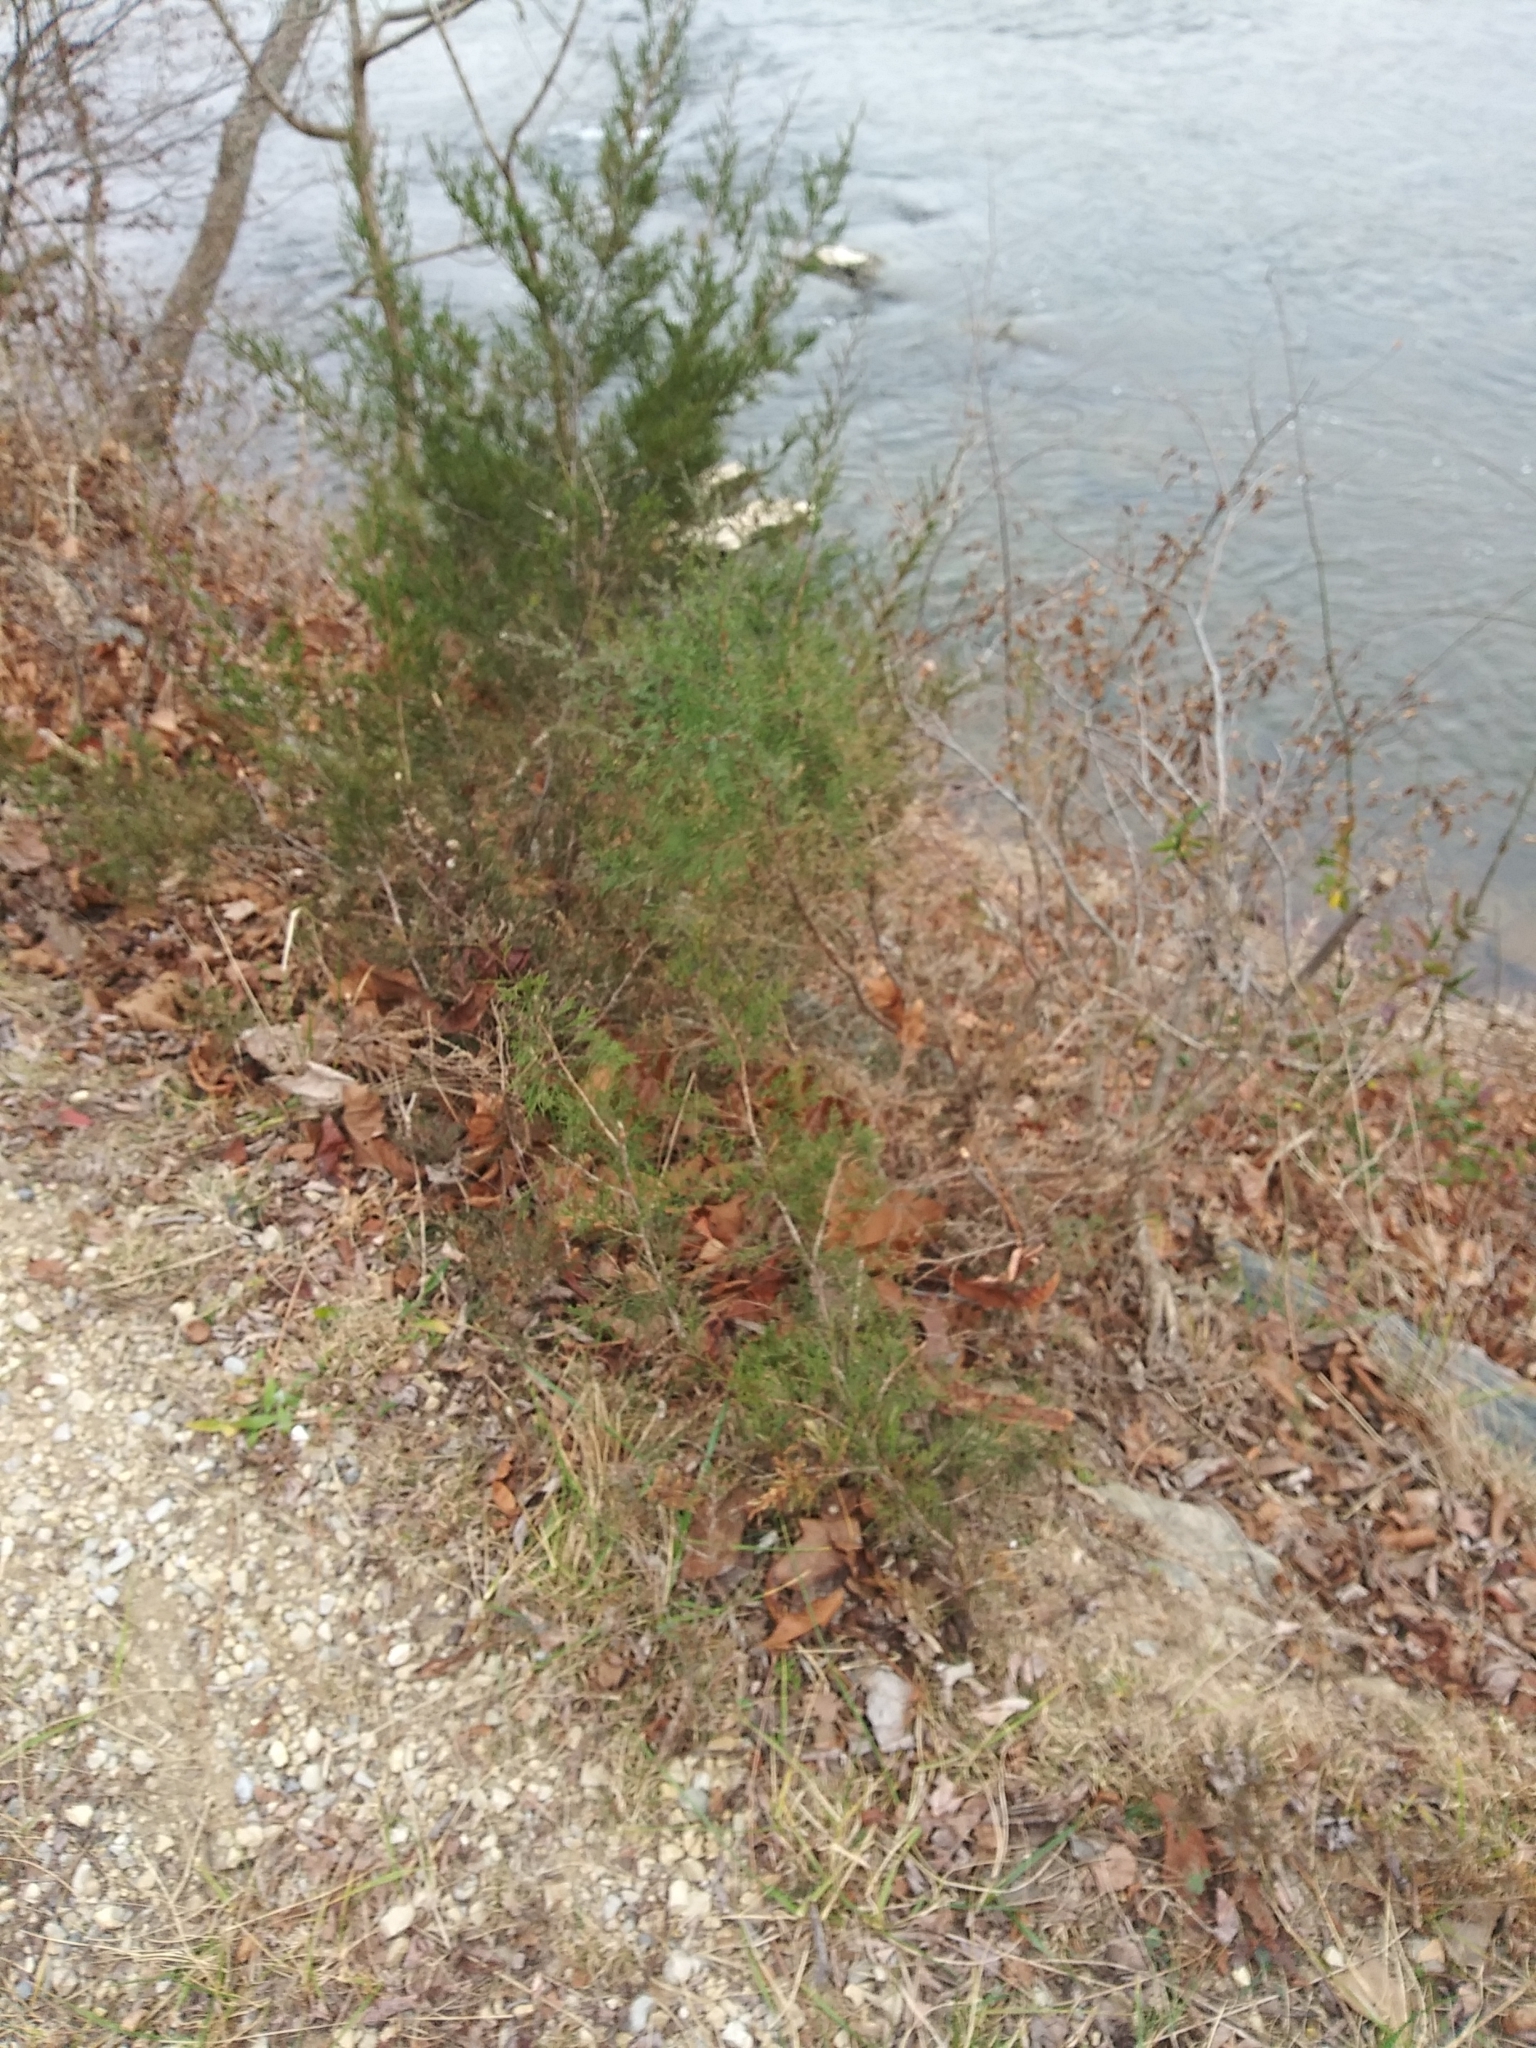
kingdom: Plantae
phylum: Tracheophyta
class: Pinopsida
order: Pinales
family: Cupressaceae
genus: Juniperus
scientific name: Juniperus virginiana
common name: Red juniper
